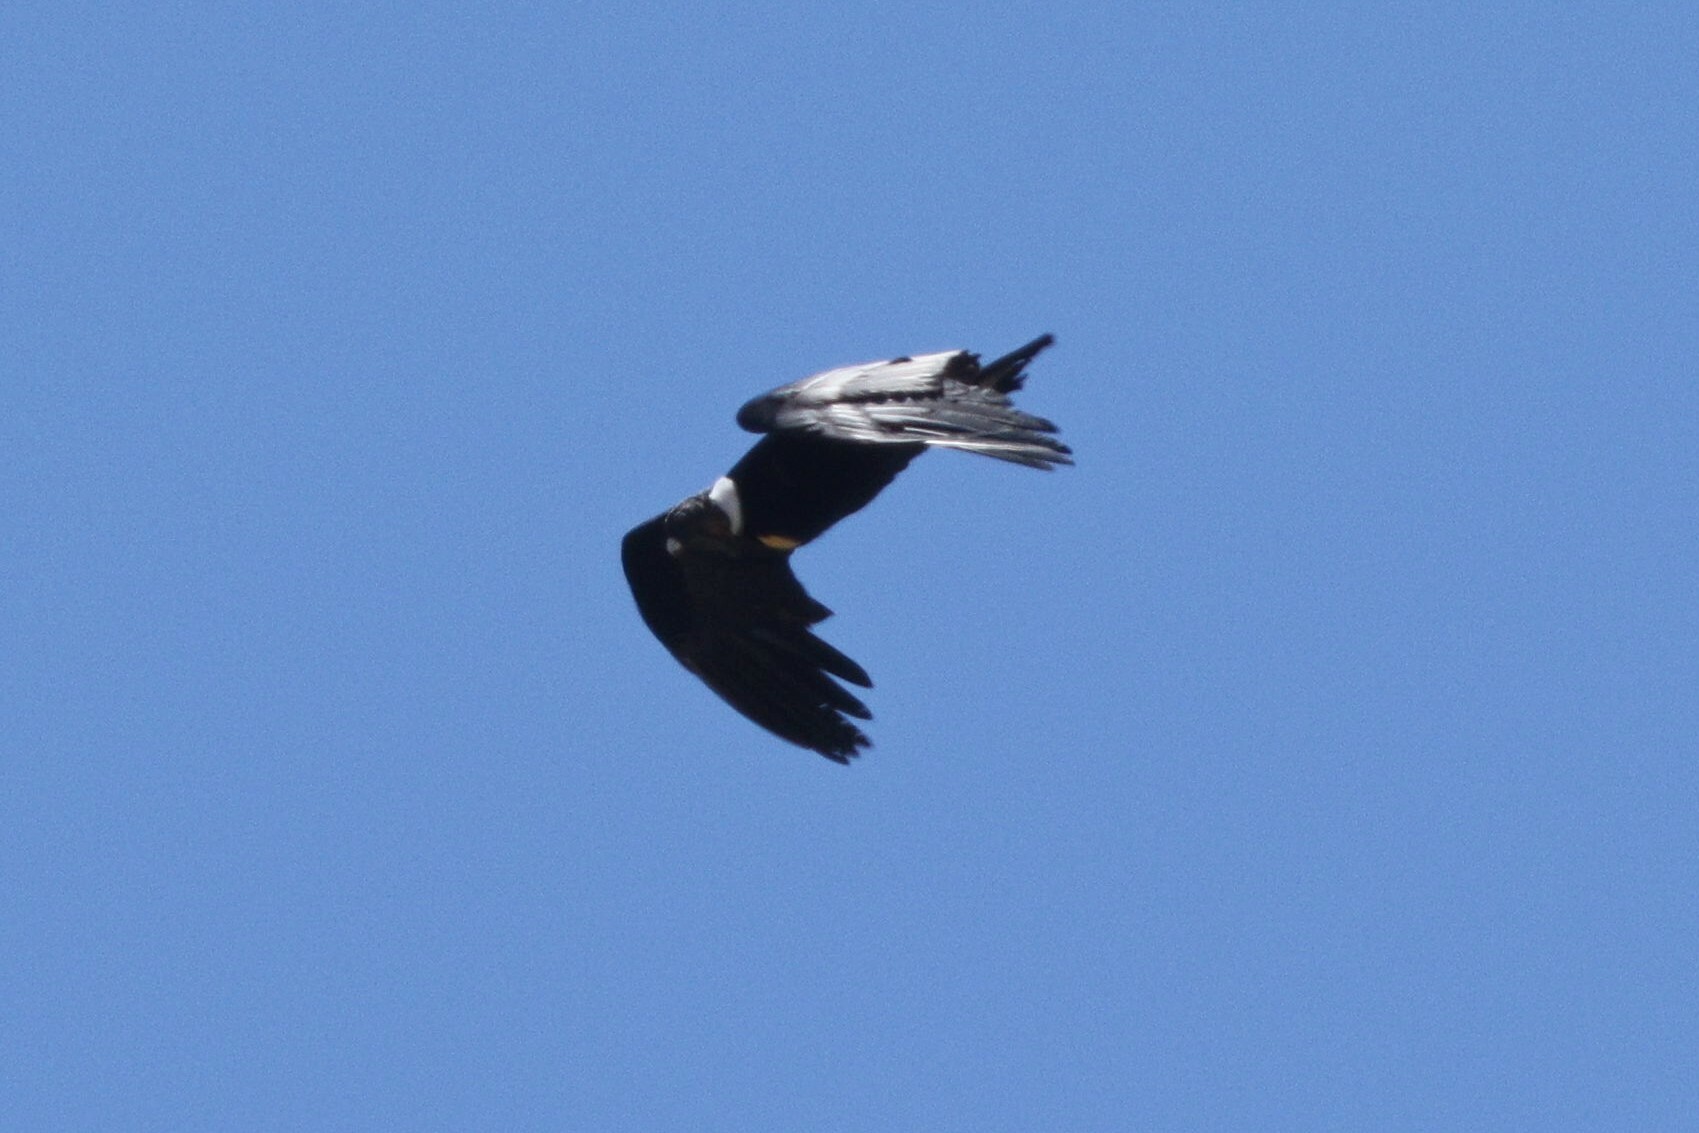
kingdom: Animalia
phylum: Chordata
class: Aves
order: Accipitriformes
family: Cathartidae
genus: Vultur
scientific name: Vultur gryphus
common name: Andean condor
